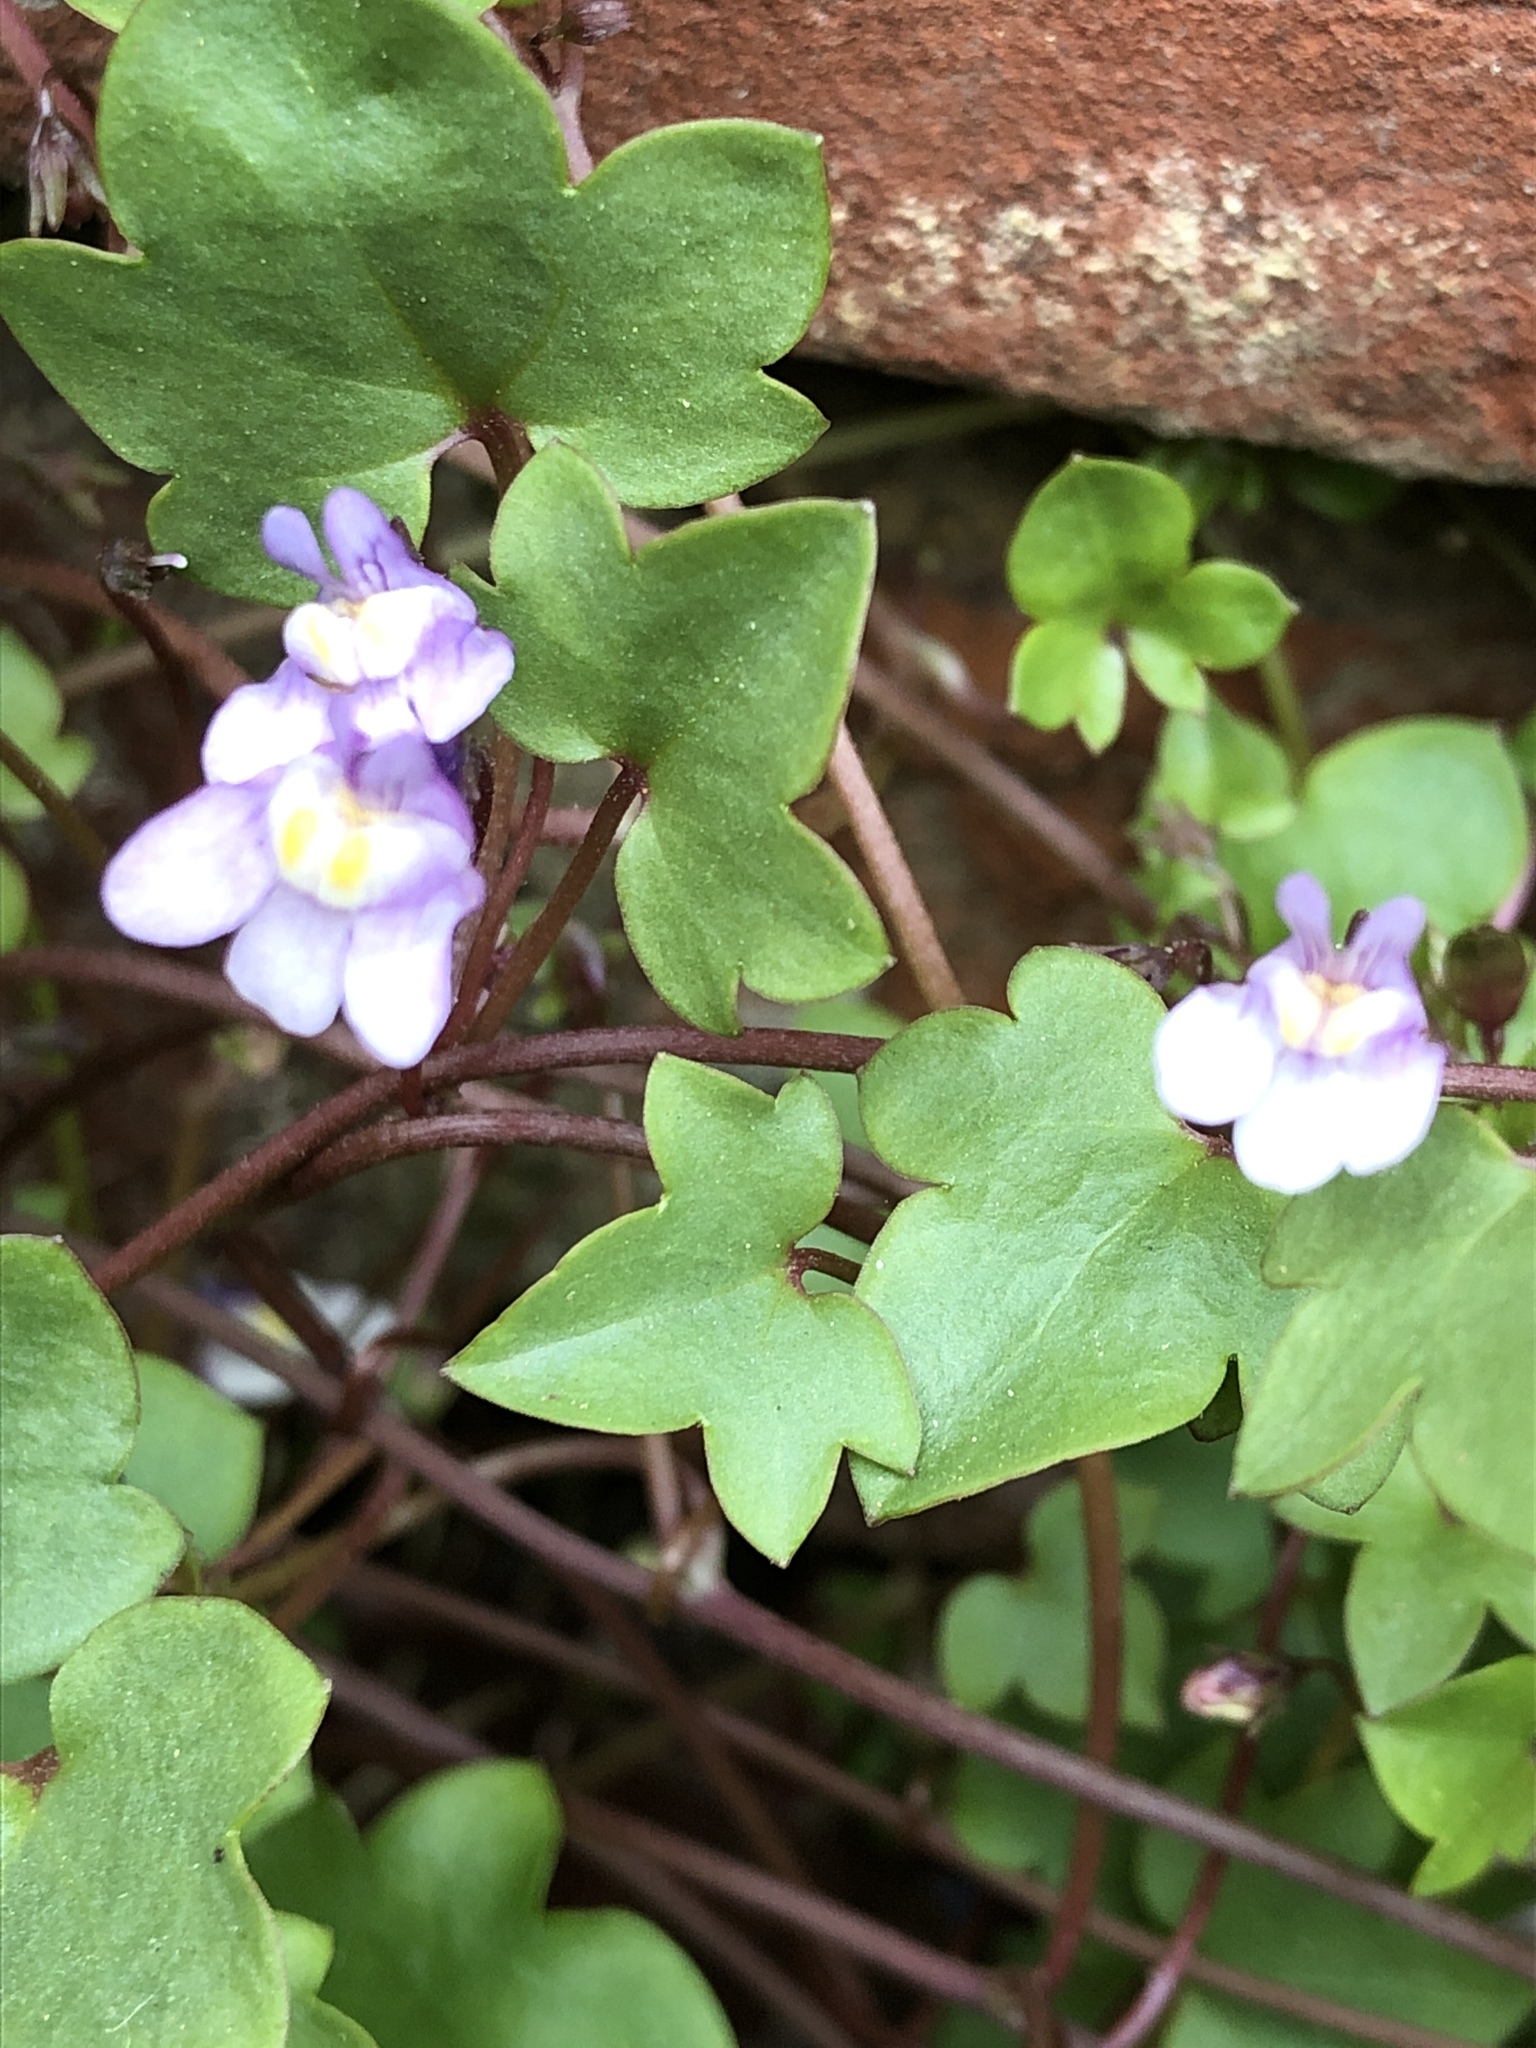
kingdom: Plantae
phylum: Tracheophyta
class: Magnoliopsida
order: Lamiales
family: Plantaginaceae
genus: Cymbalaria
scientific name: Cymbalaria muralis
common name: Ivy-leaved toadflax
